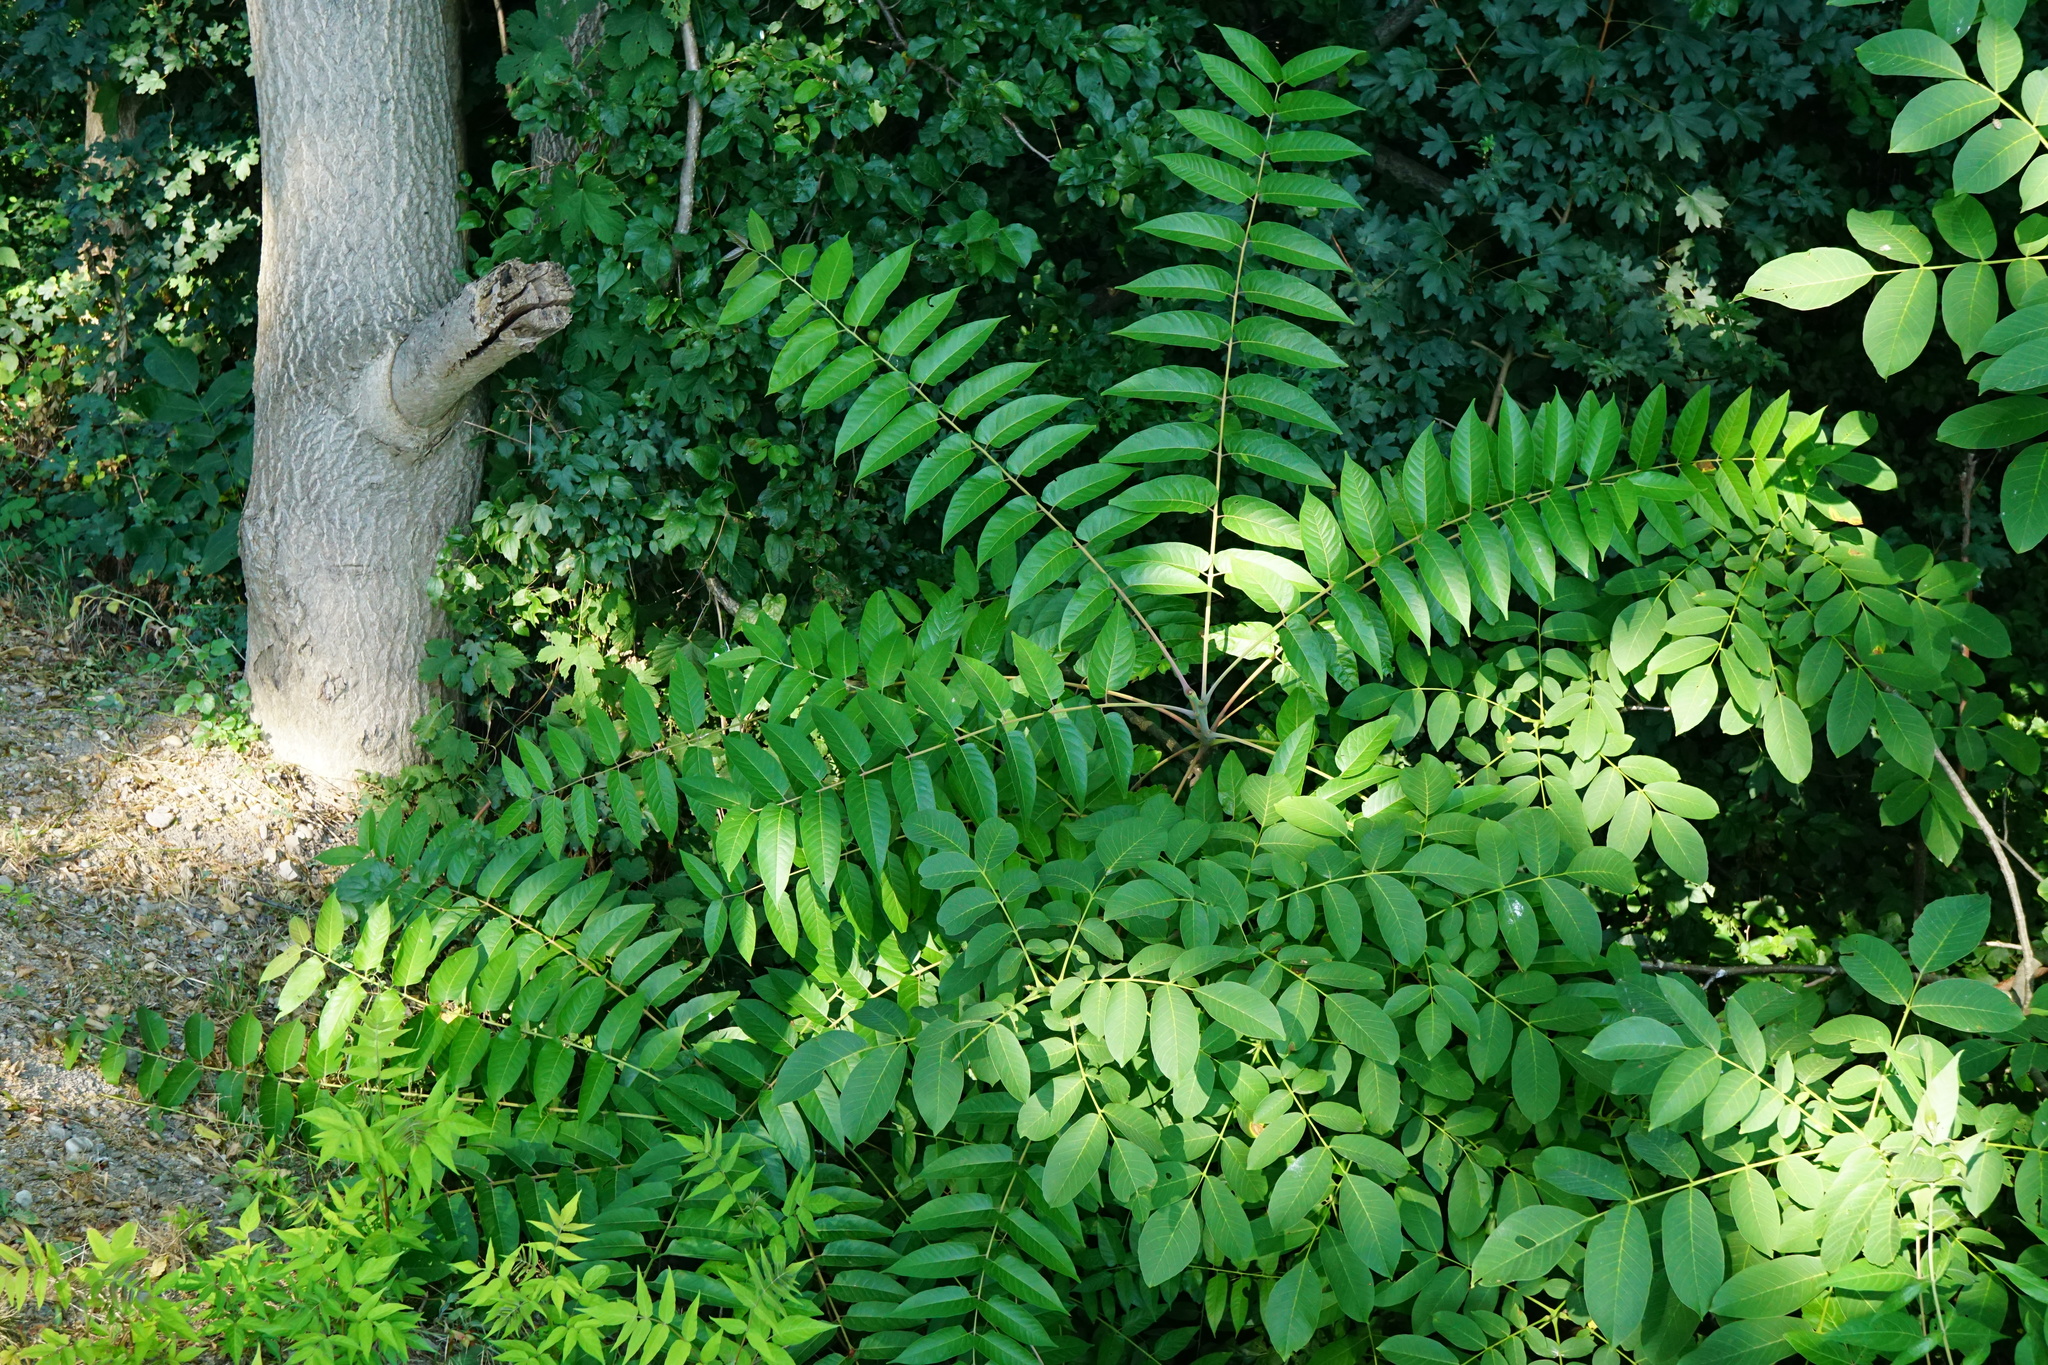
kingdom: Plantae
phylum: Tracheophyta
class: Magnoliopsida
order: Sapindales
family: Simaroubaceae
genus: Ailanthus
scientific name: Ailanthus altissima
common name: Tree-of-heaven
